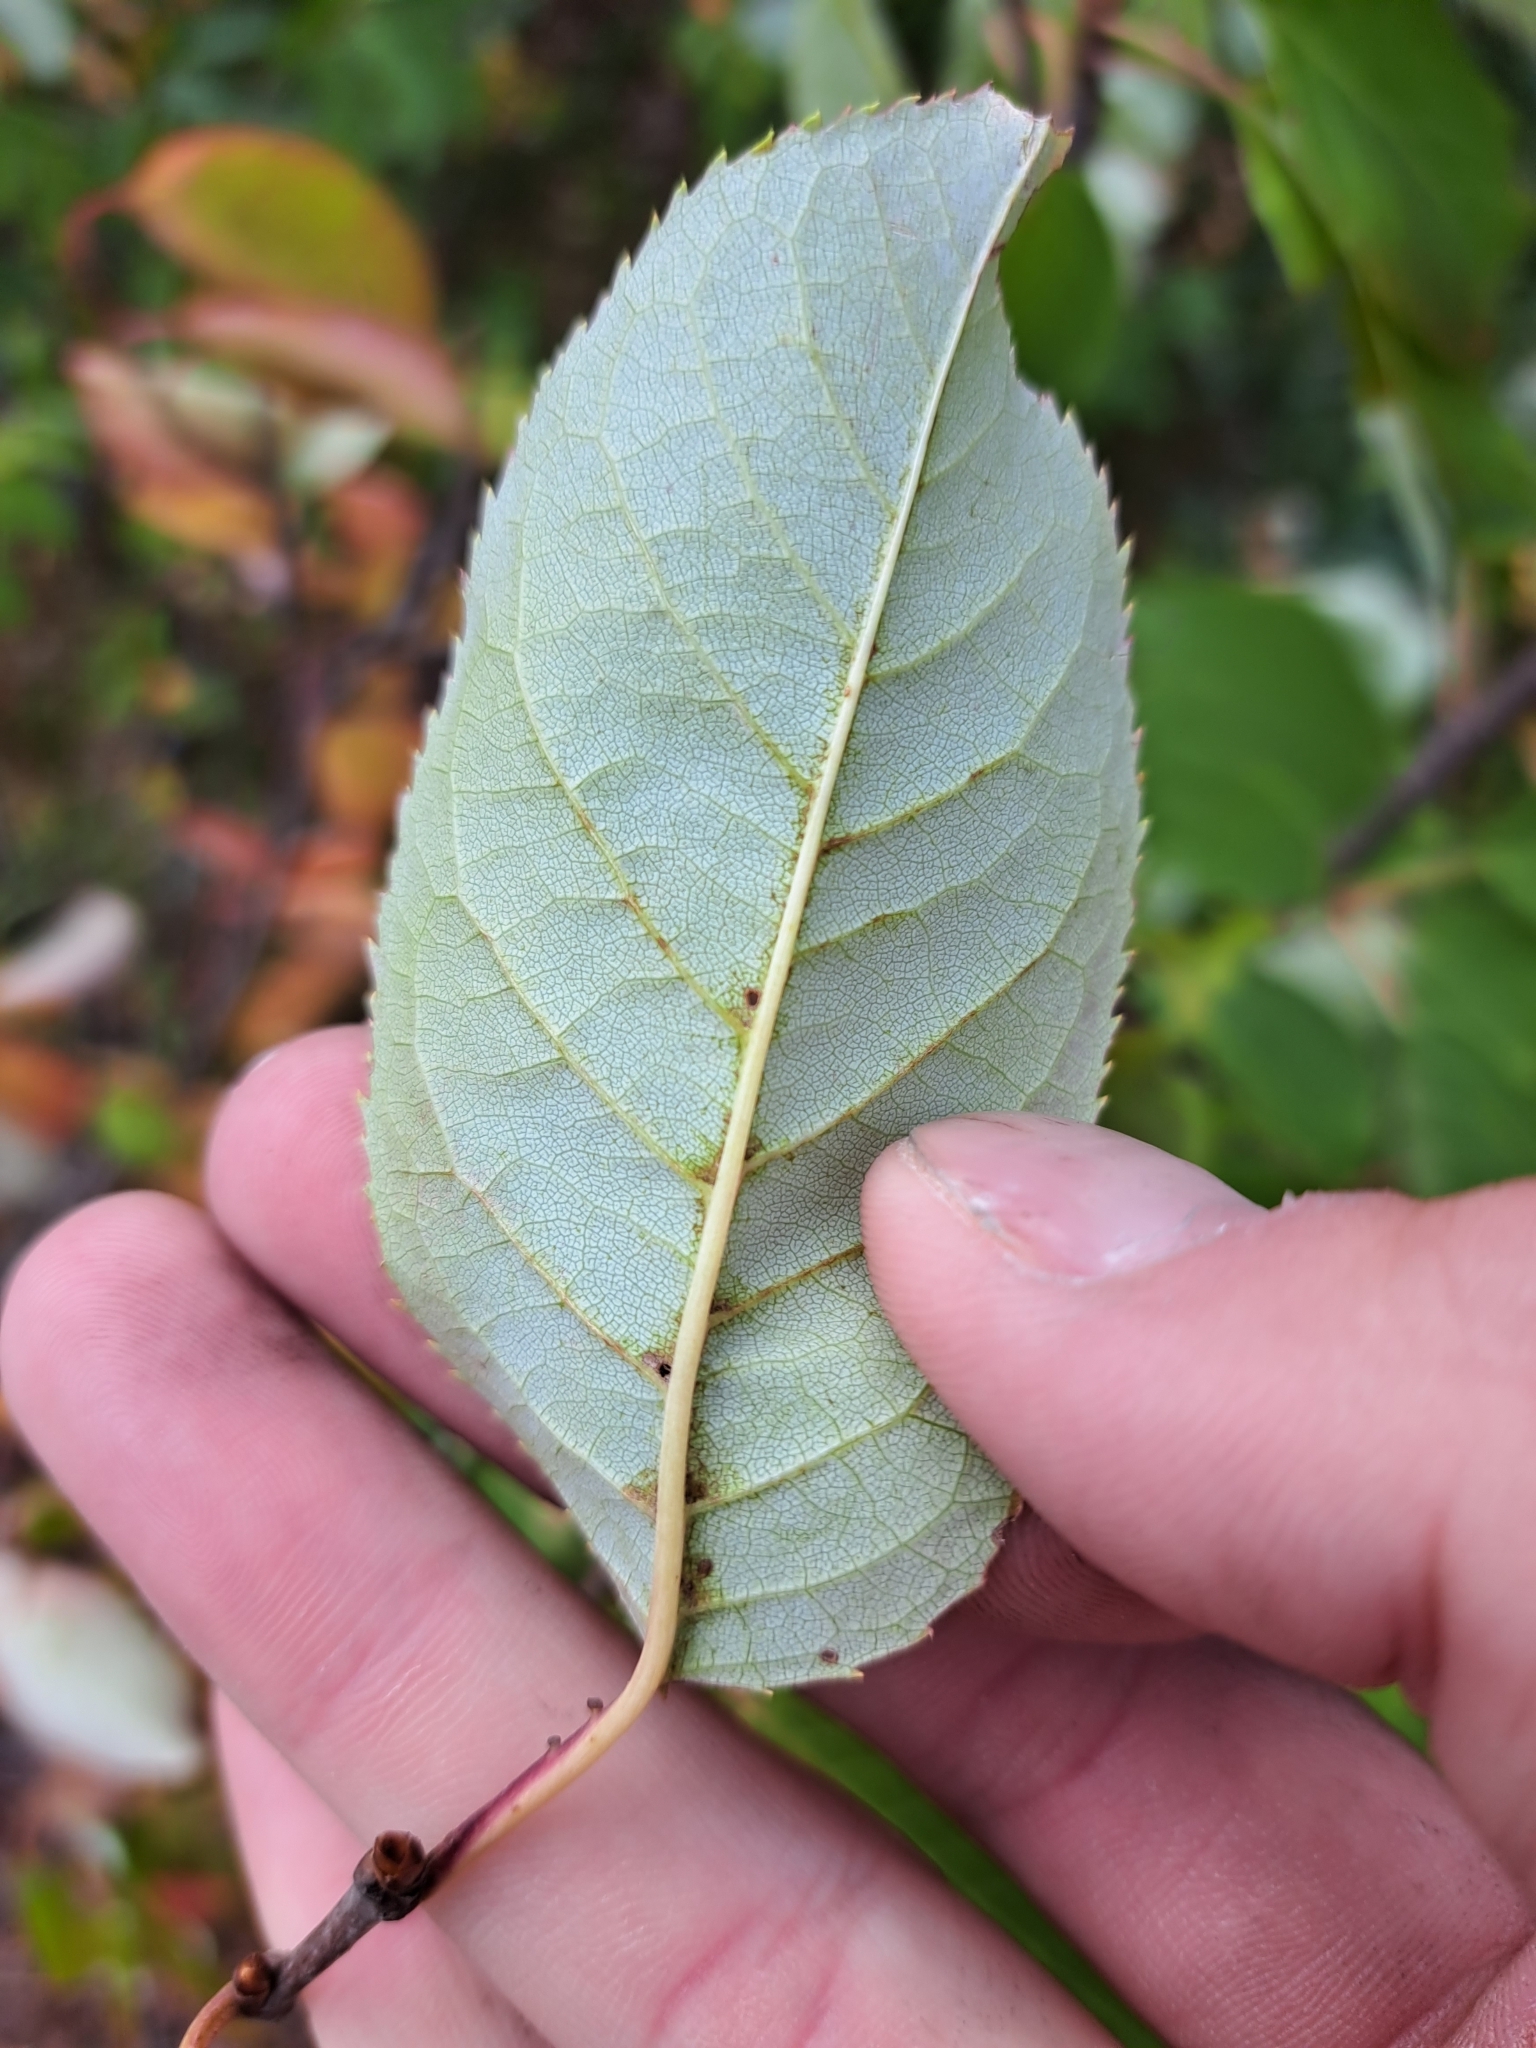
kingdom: Plantae
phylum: Tracheophyta
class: Magnoliopsida
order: Rosales
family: Rosaceae
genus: Prunus
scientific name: Prunus virginiana
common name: Chokecherry
